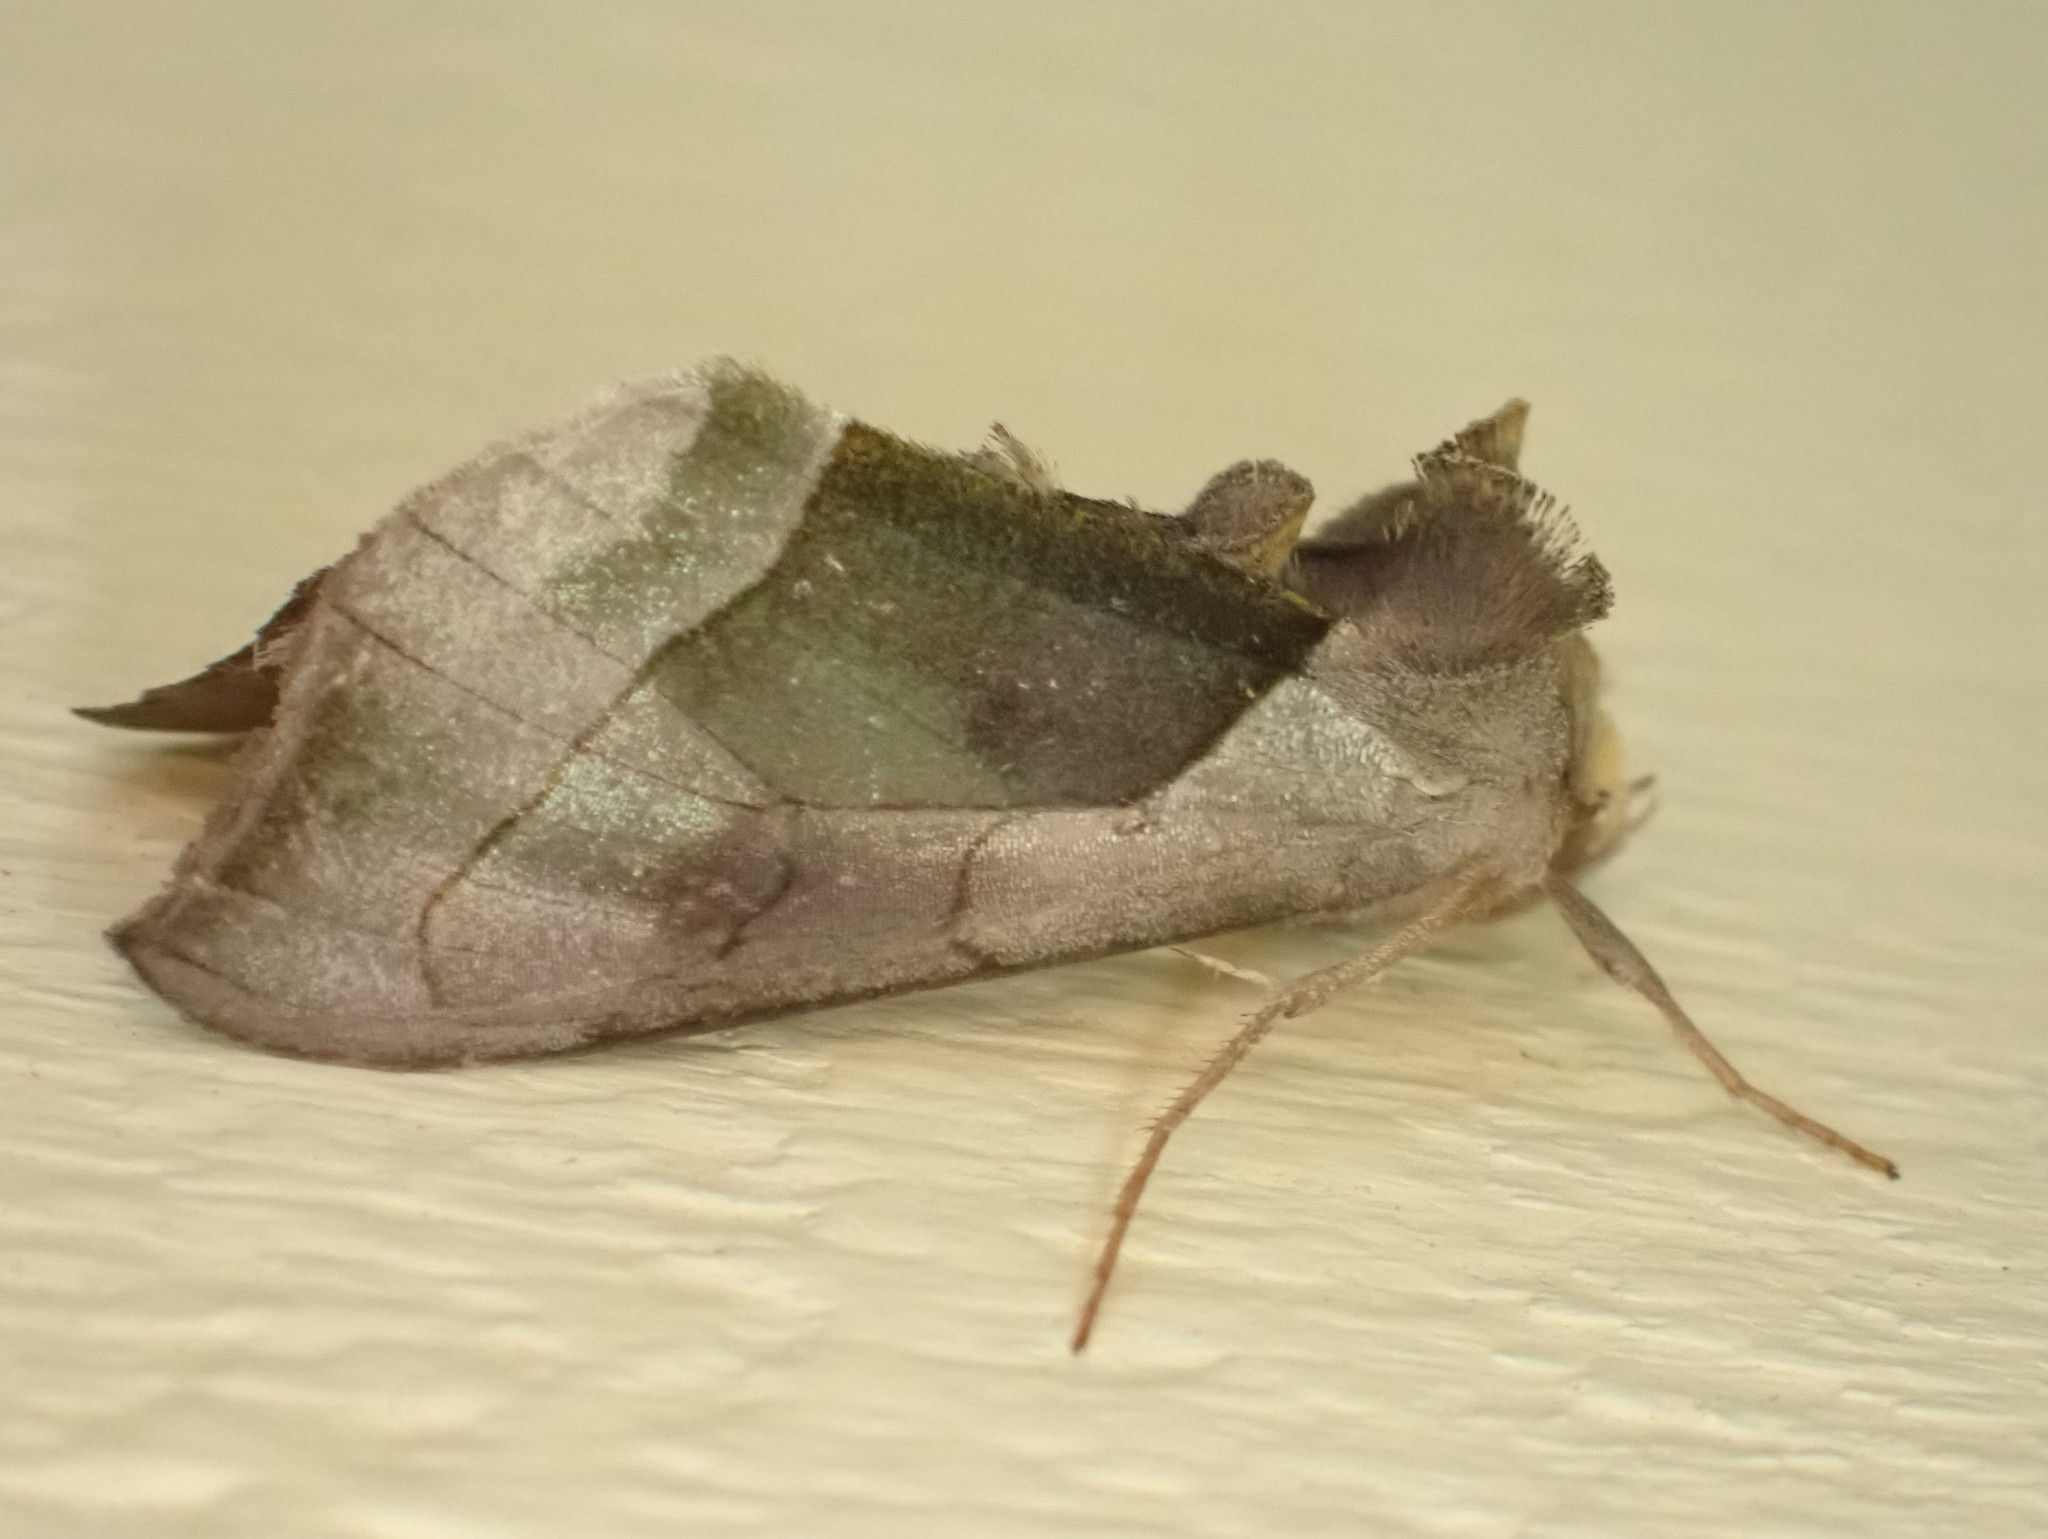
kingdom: Animalia
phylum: Arthropoda
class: Insecta
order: Lepidoptera
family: Noctuidae
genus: Diachrysia
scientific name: Diachrysia balluca
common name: Green-patched looper moth
